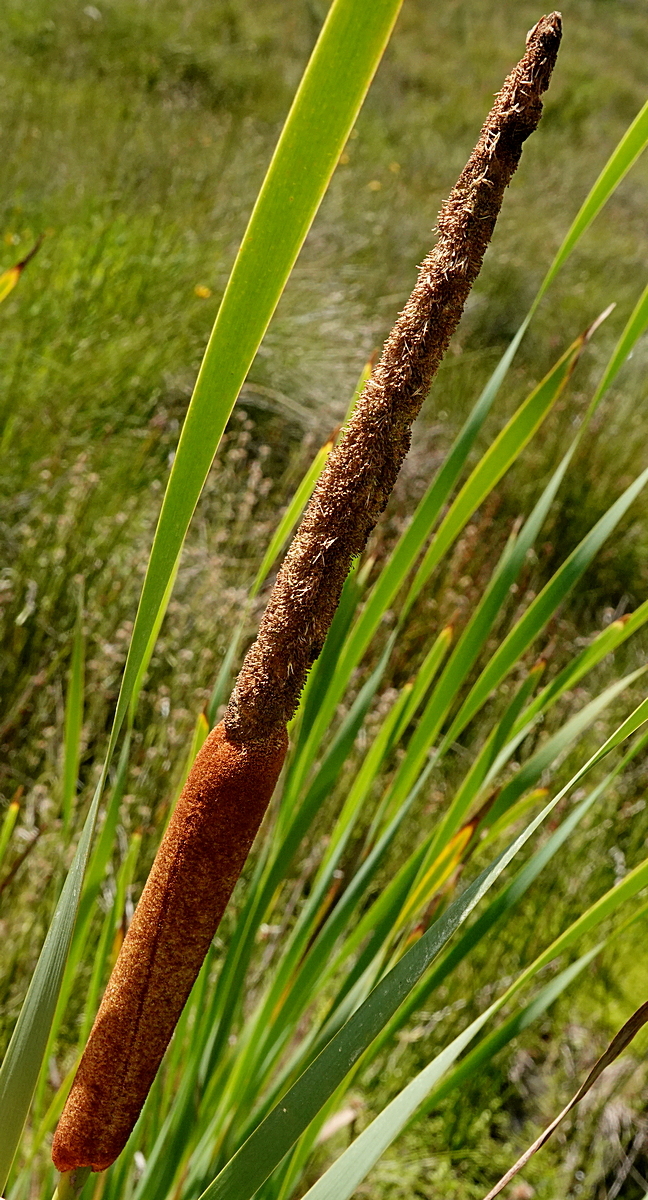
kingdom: Plantae
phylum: Tracheophyta
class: Liliopsida
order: Poales
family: Typhaceae
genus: Typha
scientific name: Typha orientalis
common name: Bullrush
